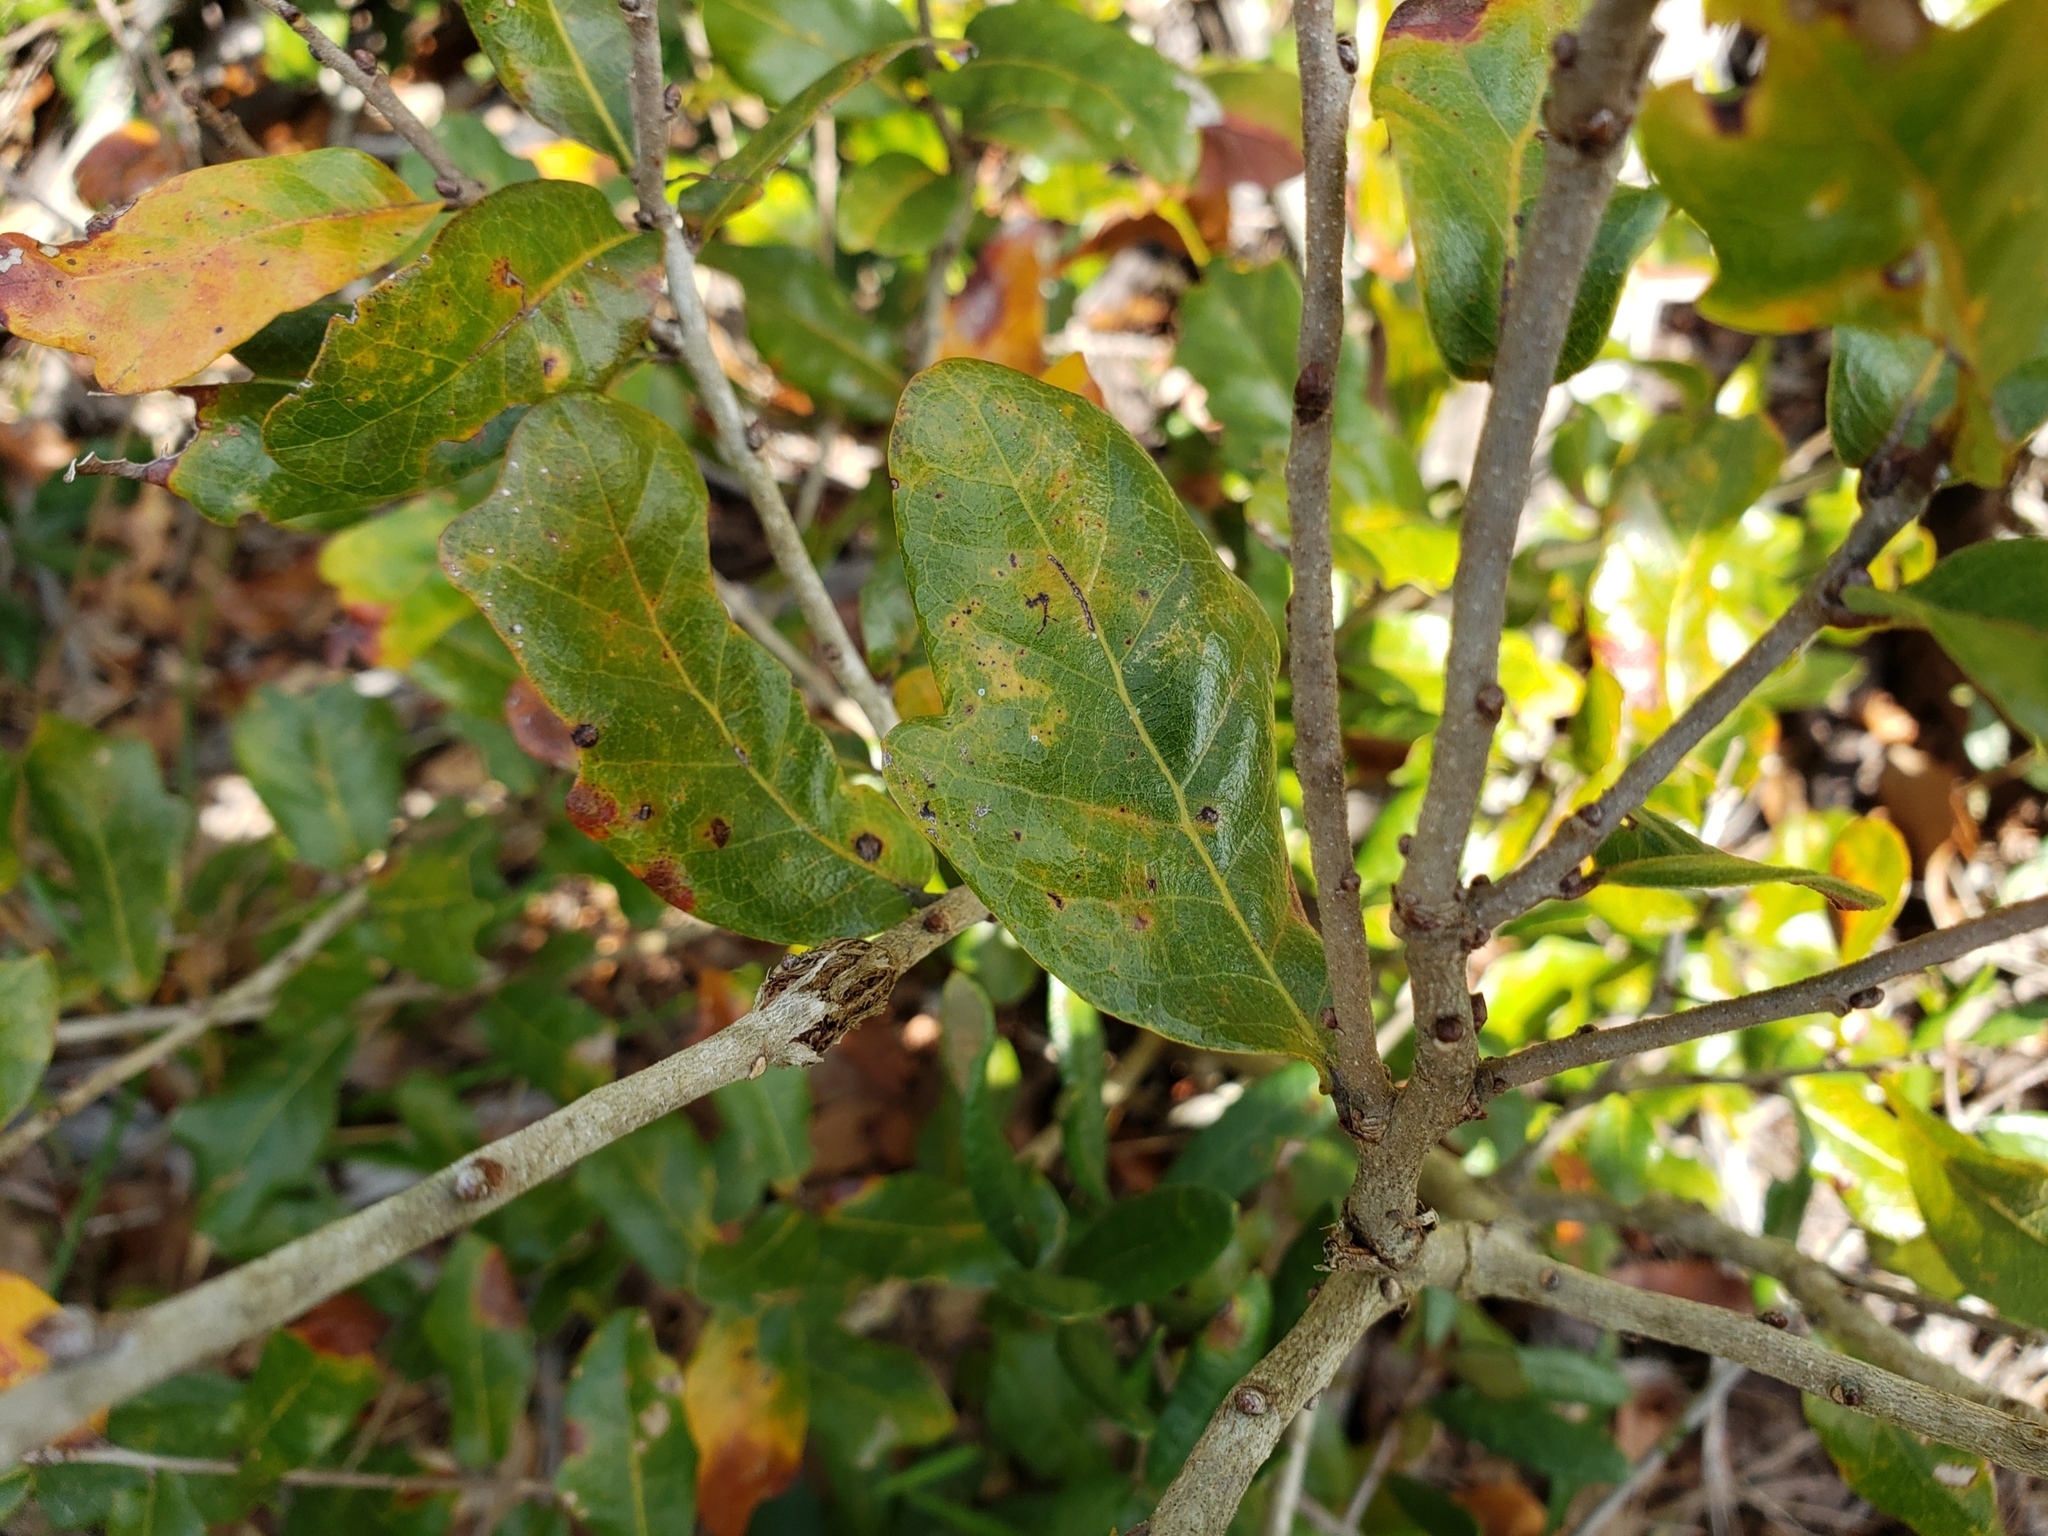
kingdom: Plantae
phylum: Tracheophyta
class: Magnoliopsida
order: Fagales
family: Fagaceae
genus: Quercus
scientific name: Quercus chapmanii
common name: Chapman oak
